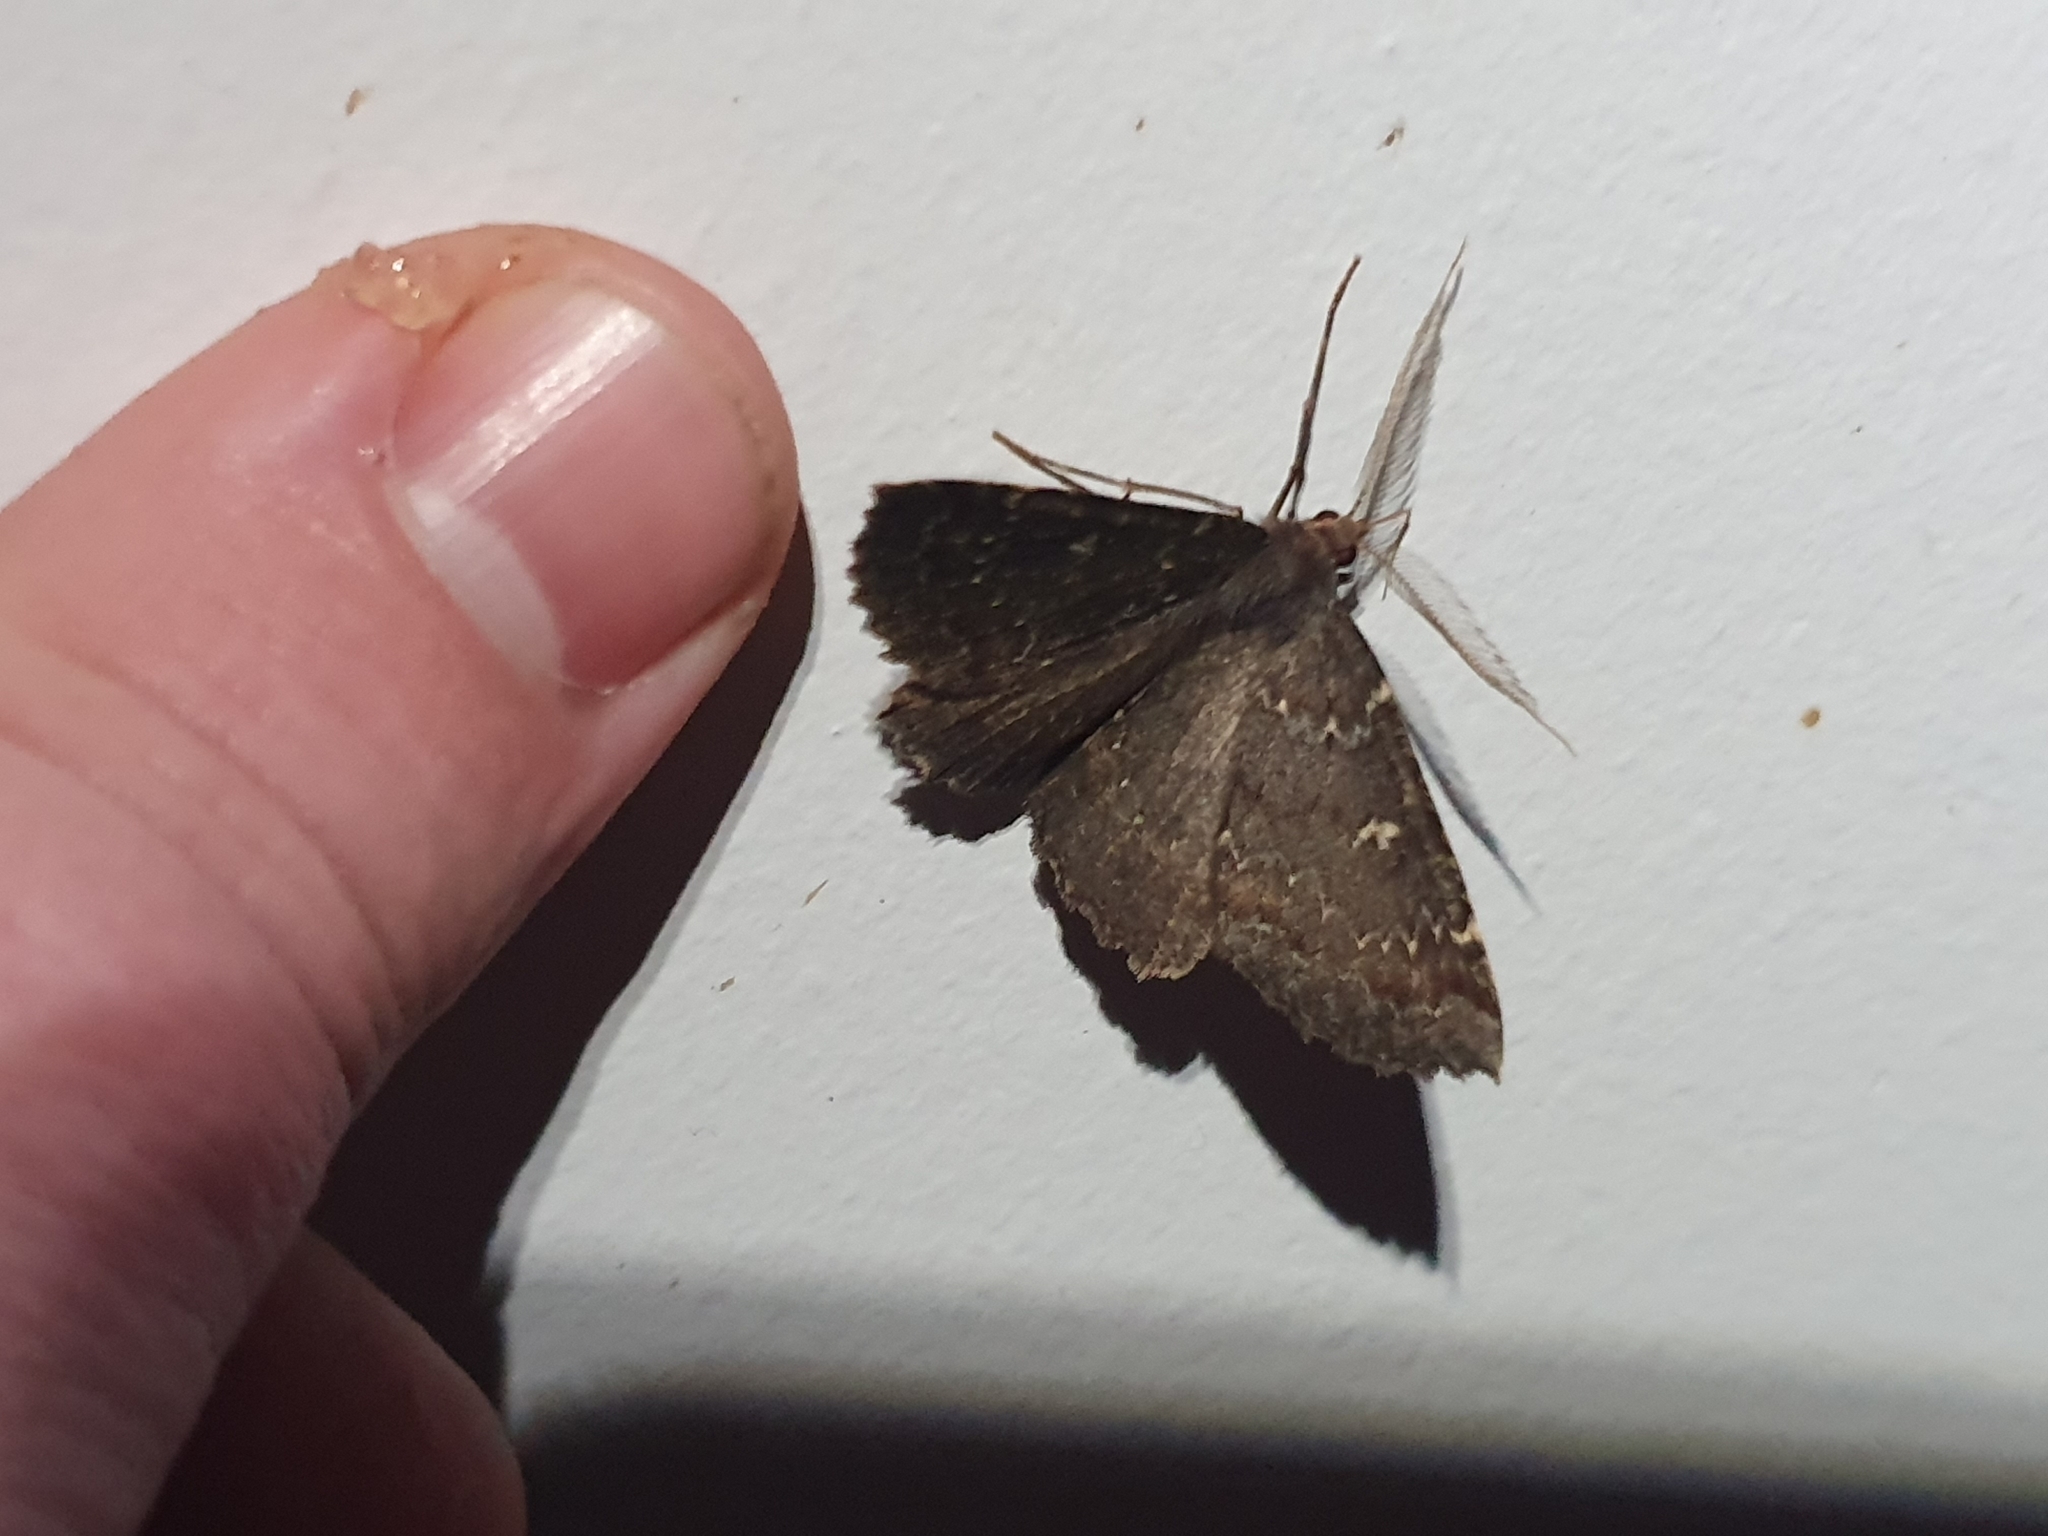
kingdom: Animalia
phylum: Arthropoda
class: Insecta
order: Lepidoptera
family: Geometridae
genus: Cleora
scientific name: Cleora scriptaria
